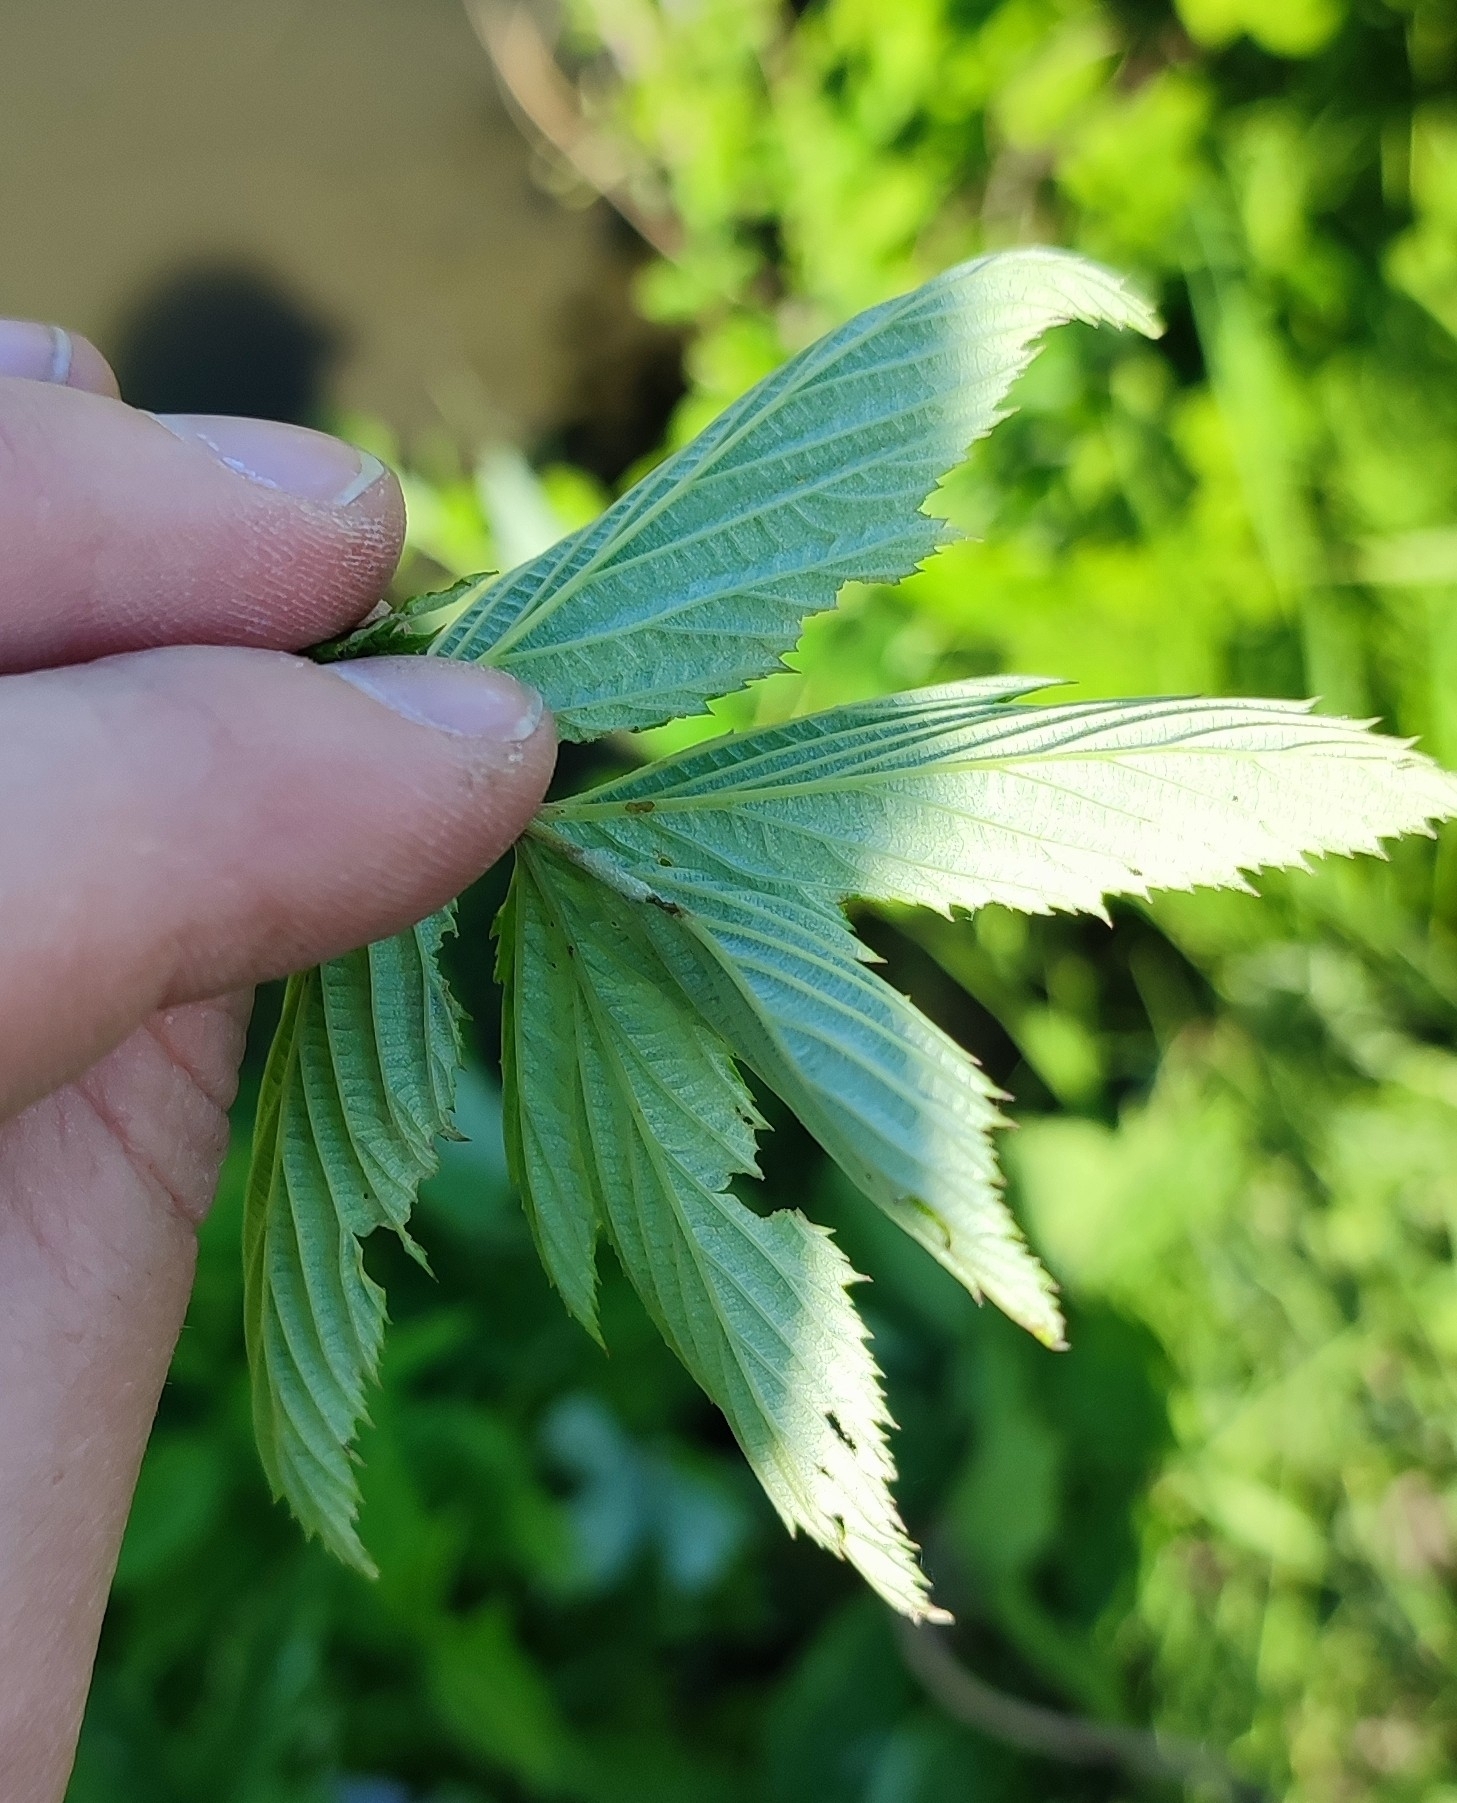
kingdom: Plantae
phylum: Tracheophyta
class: Magnoliopsida
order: Rosales
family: Rosaceae
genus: Filipendula
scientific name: Filipendula ulmaria
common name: Meadowsweet
